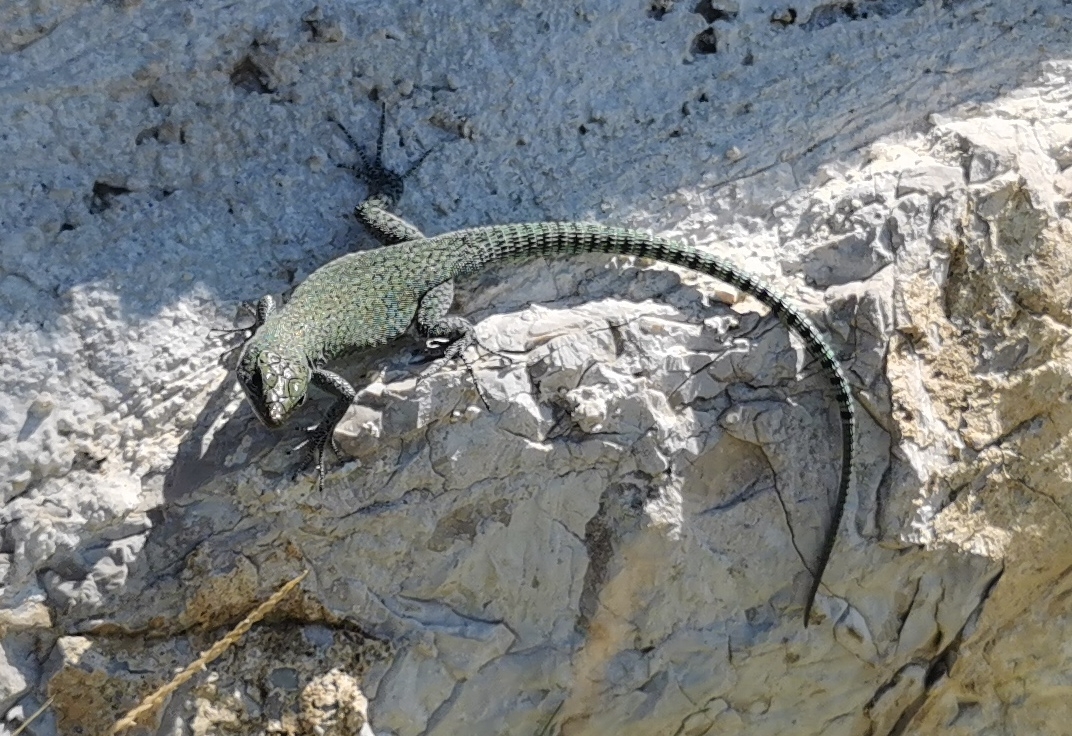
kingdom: Animalia
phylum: Chordata
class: Squamata
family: Lacertidae
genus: Dalmatolacerta
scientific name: Dalmatolacerta oxycephala
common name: Sharp-snouted rock lizard
